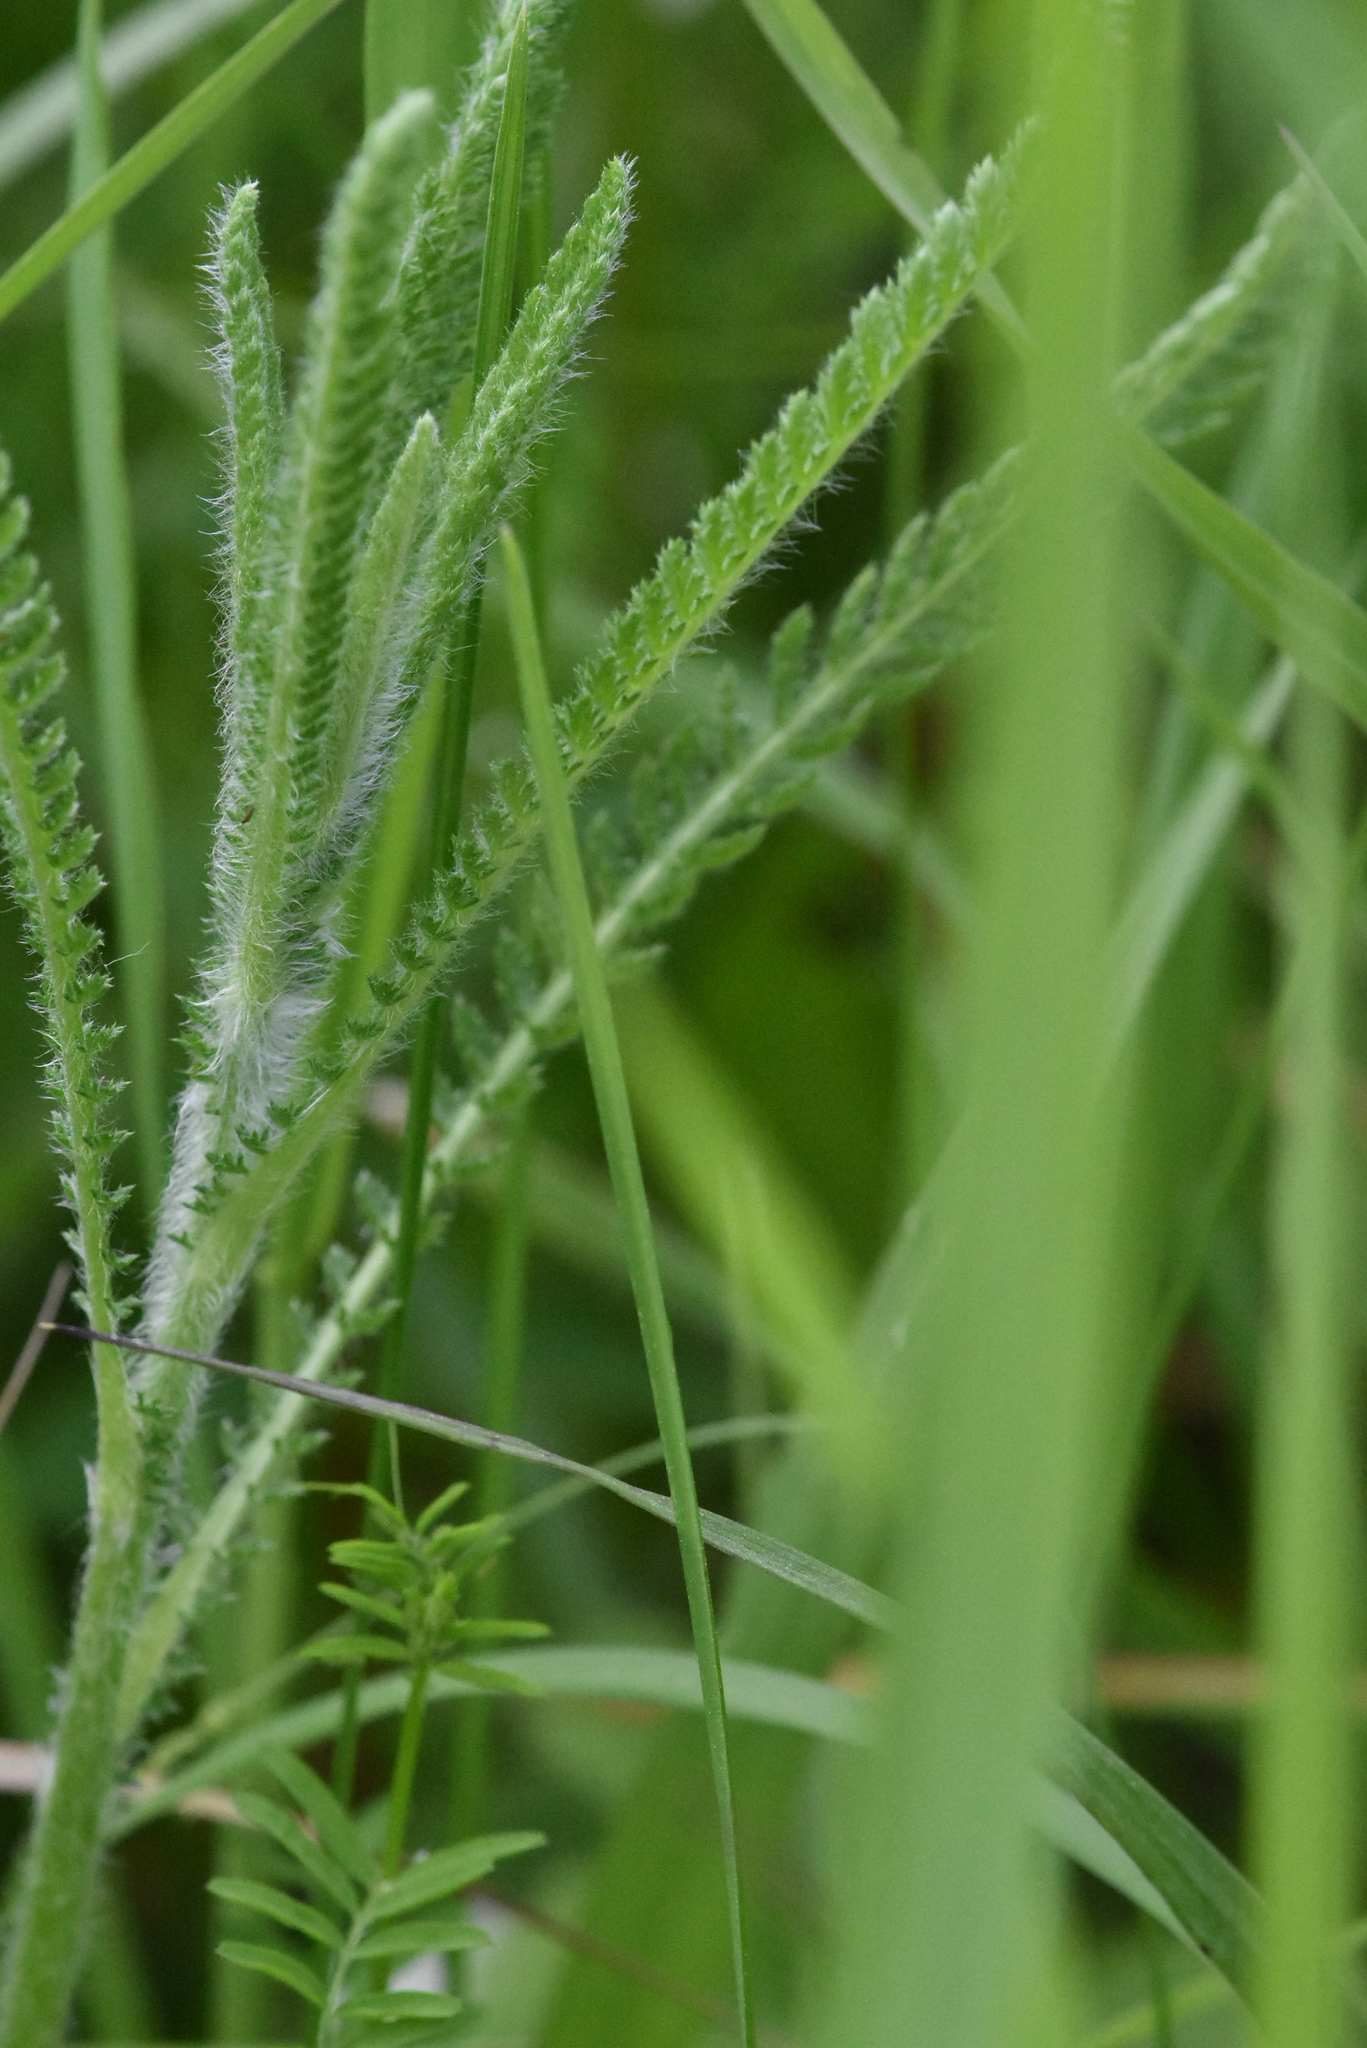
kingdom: Plantae
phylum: Tracheophyta
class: Magnoliopsida
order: Asterales
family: Asteraceae
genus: Achillea
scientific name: Achillea millefolium
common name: Yarrow
